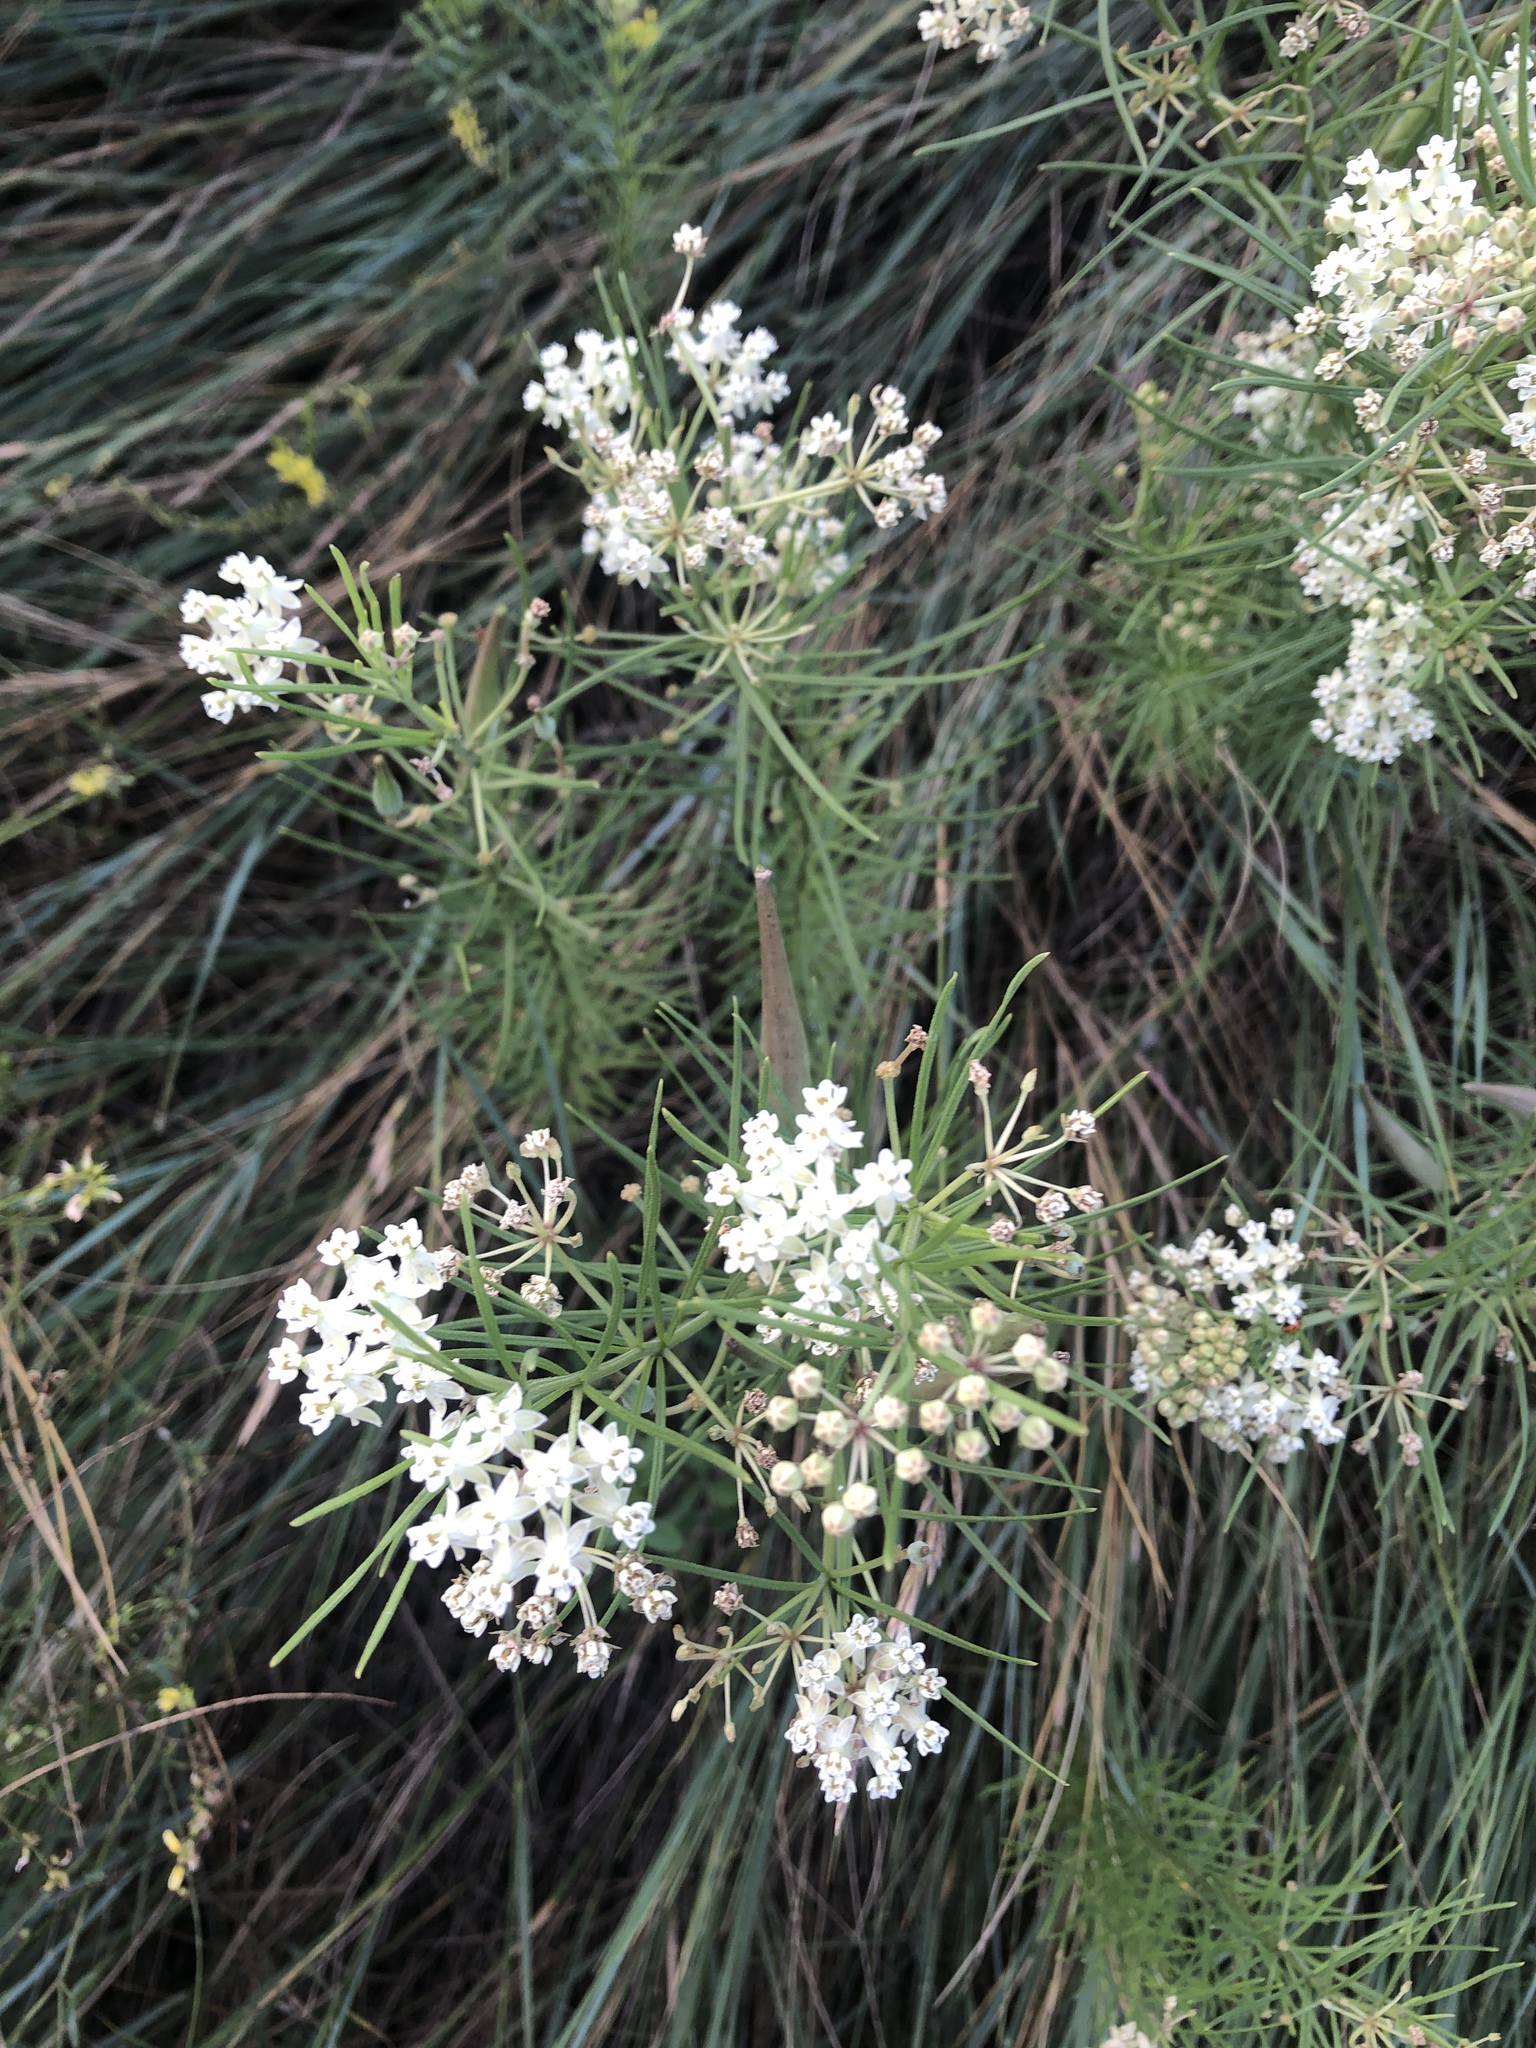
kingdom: Plantae
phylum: Tracheophyta
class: Magnoliopsida
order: Gentianales
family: Apocynaceae
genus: Asclepias
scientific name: Asclepias verticillata
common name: Eastern whorled milkweed
